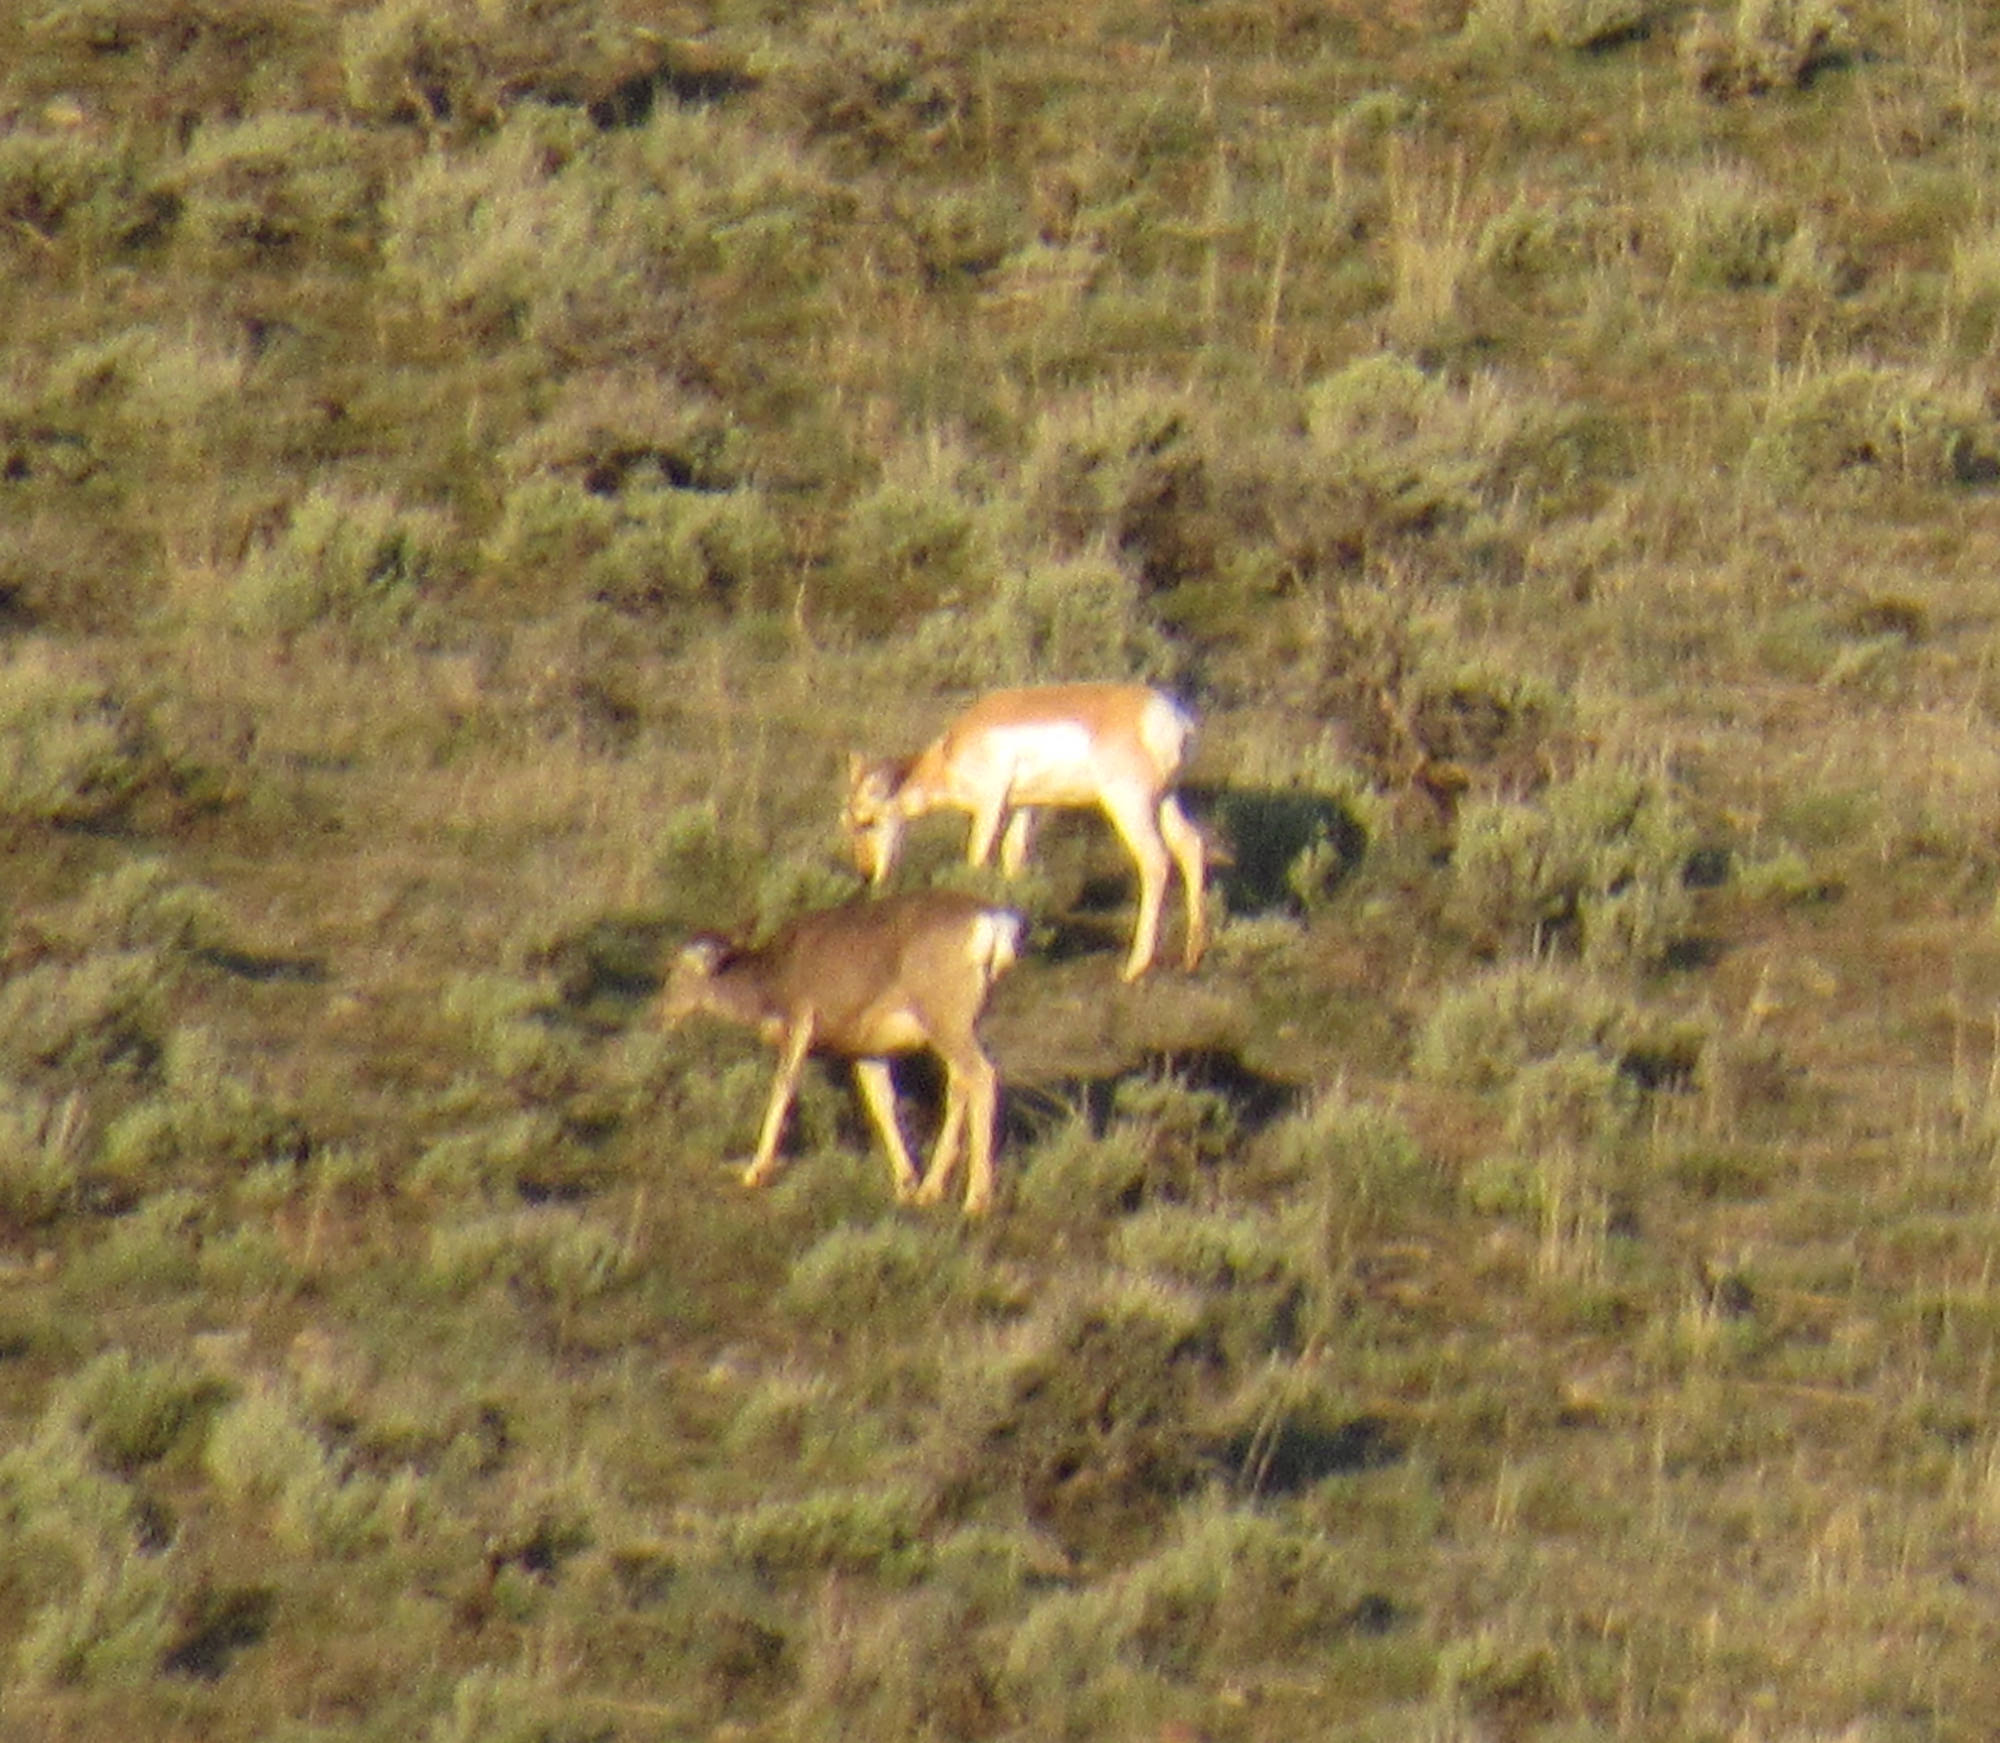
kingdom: Animalia
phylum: Chordata
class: Mammalia
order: Artiodactyla
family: Antilocapridae
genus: Antilocapra
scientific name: Antilocapra americana
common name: Pronghorn
